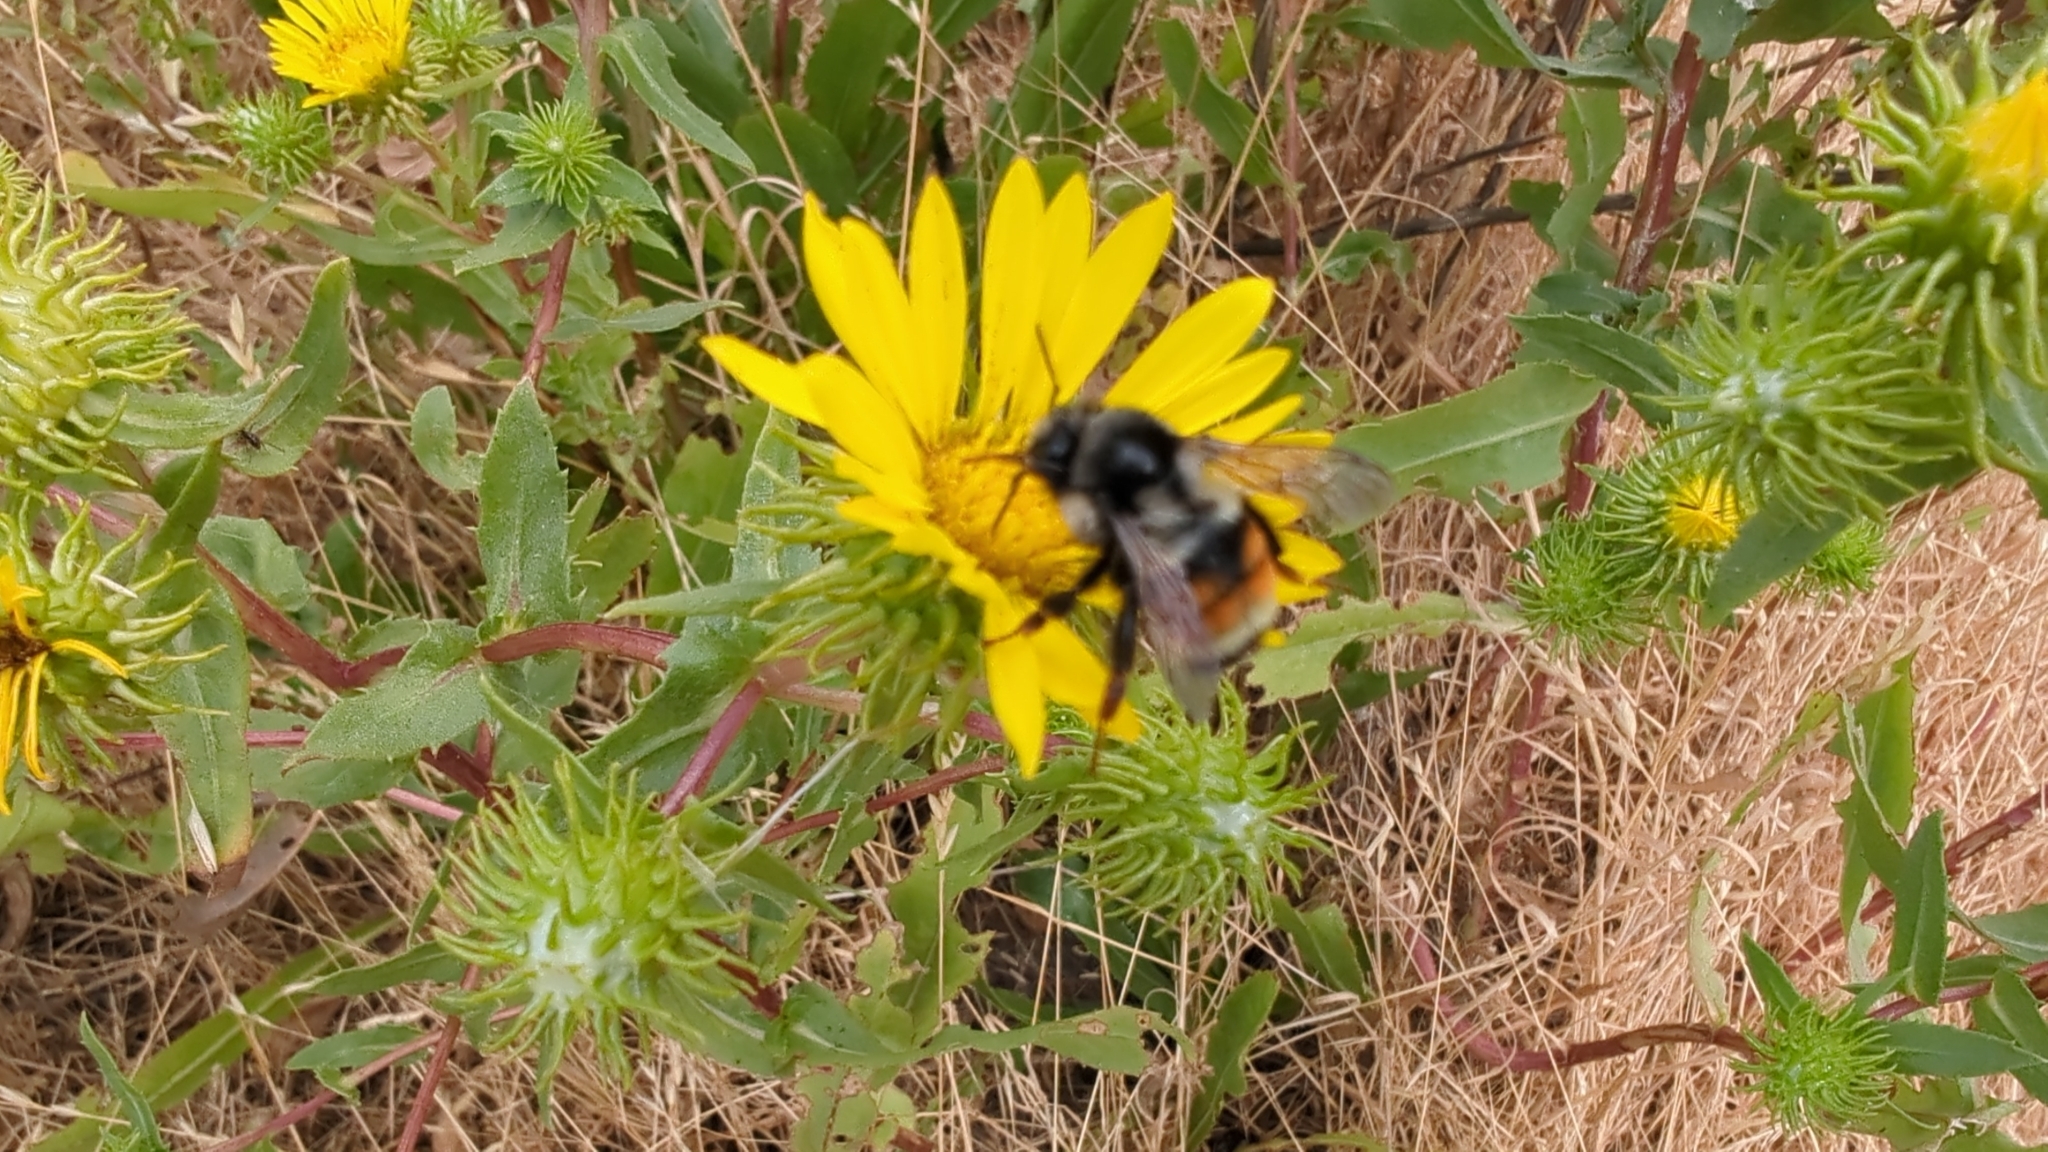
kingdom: Animalia
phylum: Arthropoda
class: Insecta
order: Hymenoptera
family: Apidae
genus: Bombus
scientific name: Bombus vancouverensis
